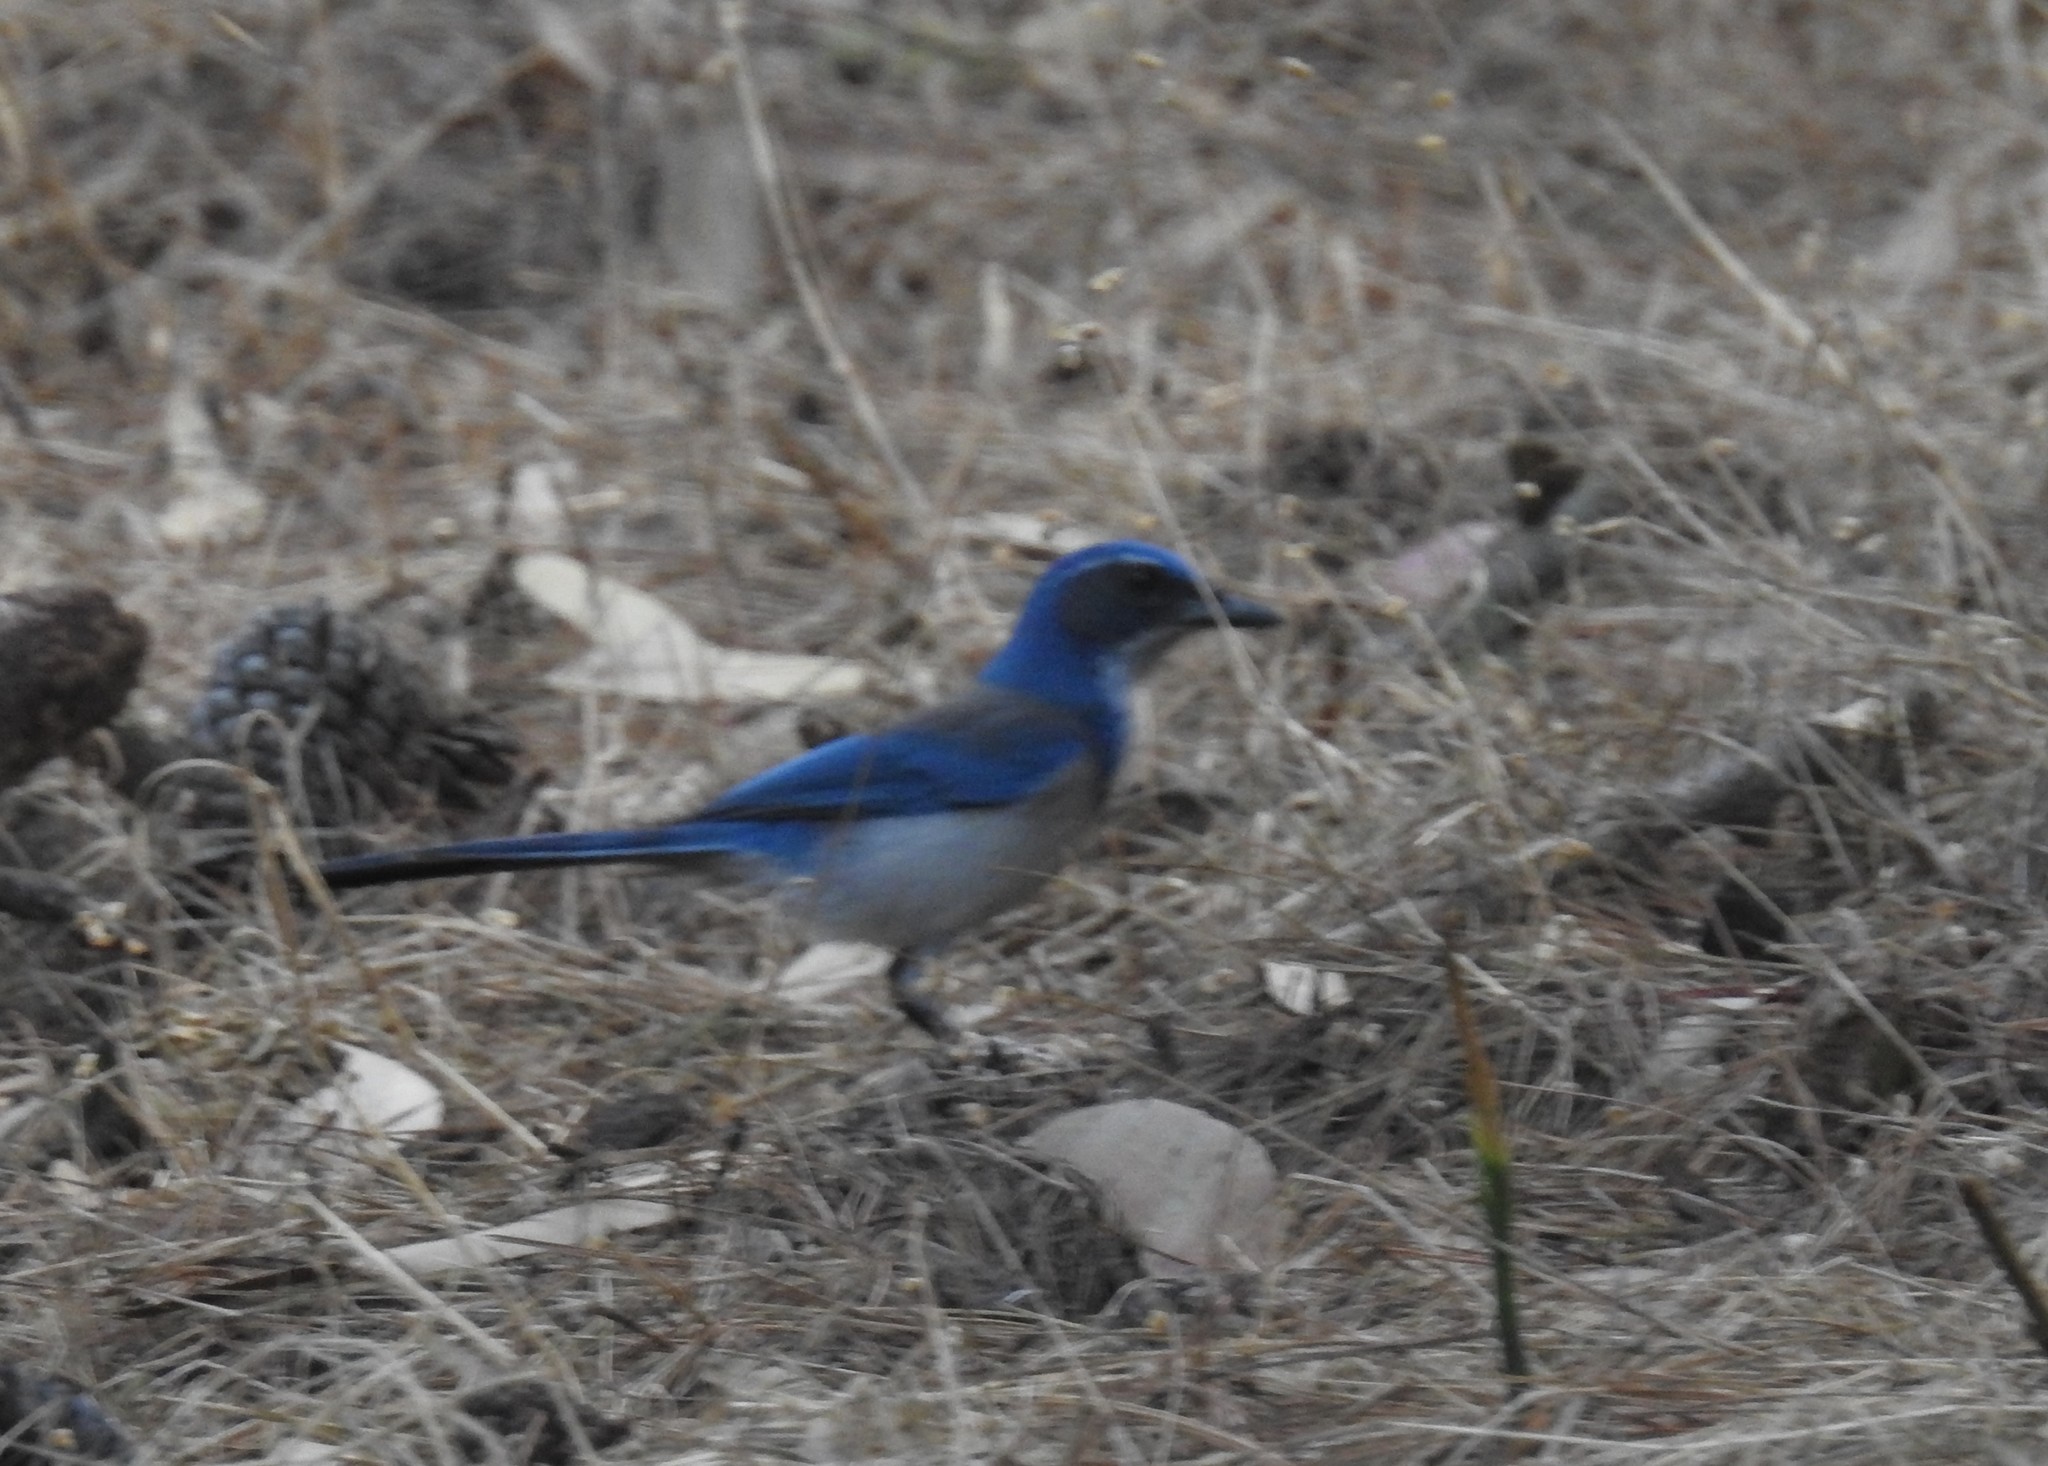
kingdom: Animalia
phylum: Chordata
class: Aves
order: Passeriformes
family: Corvidae
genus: Aphelocoma
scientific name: Aphelocoma californica
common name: California scrub-jay
